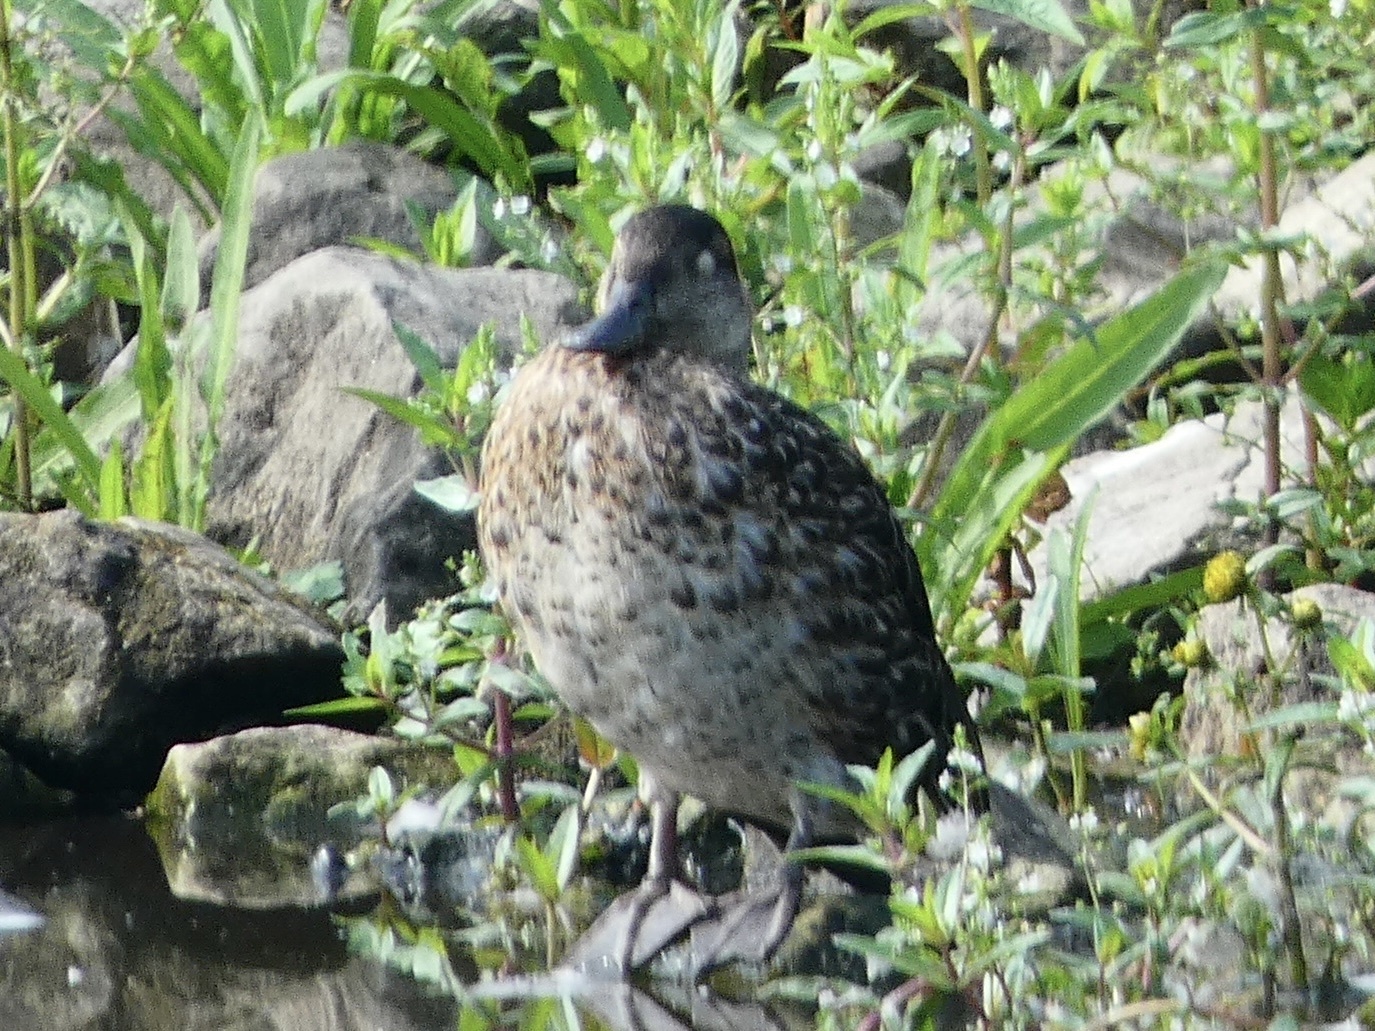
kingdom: Animalia
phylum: Chordata
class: Aves
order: Anseriformes
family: Anatidae
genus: Anas
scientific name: Anas crecca
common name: Eurasian teal
